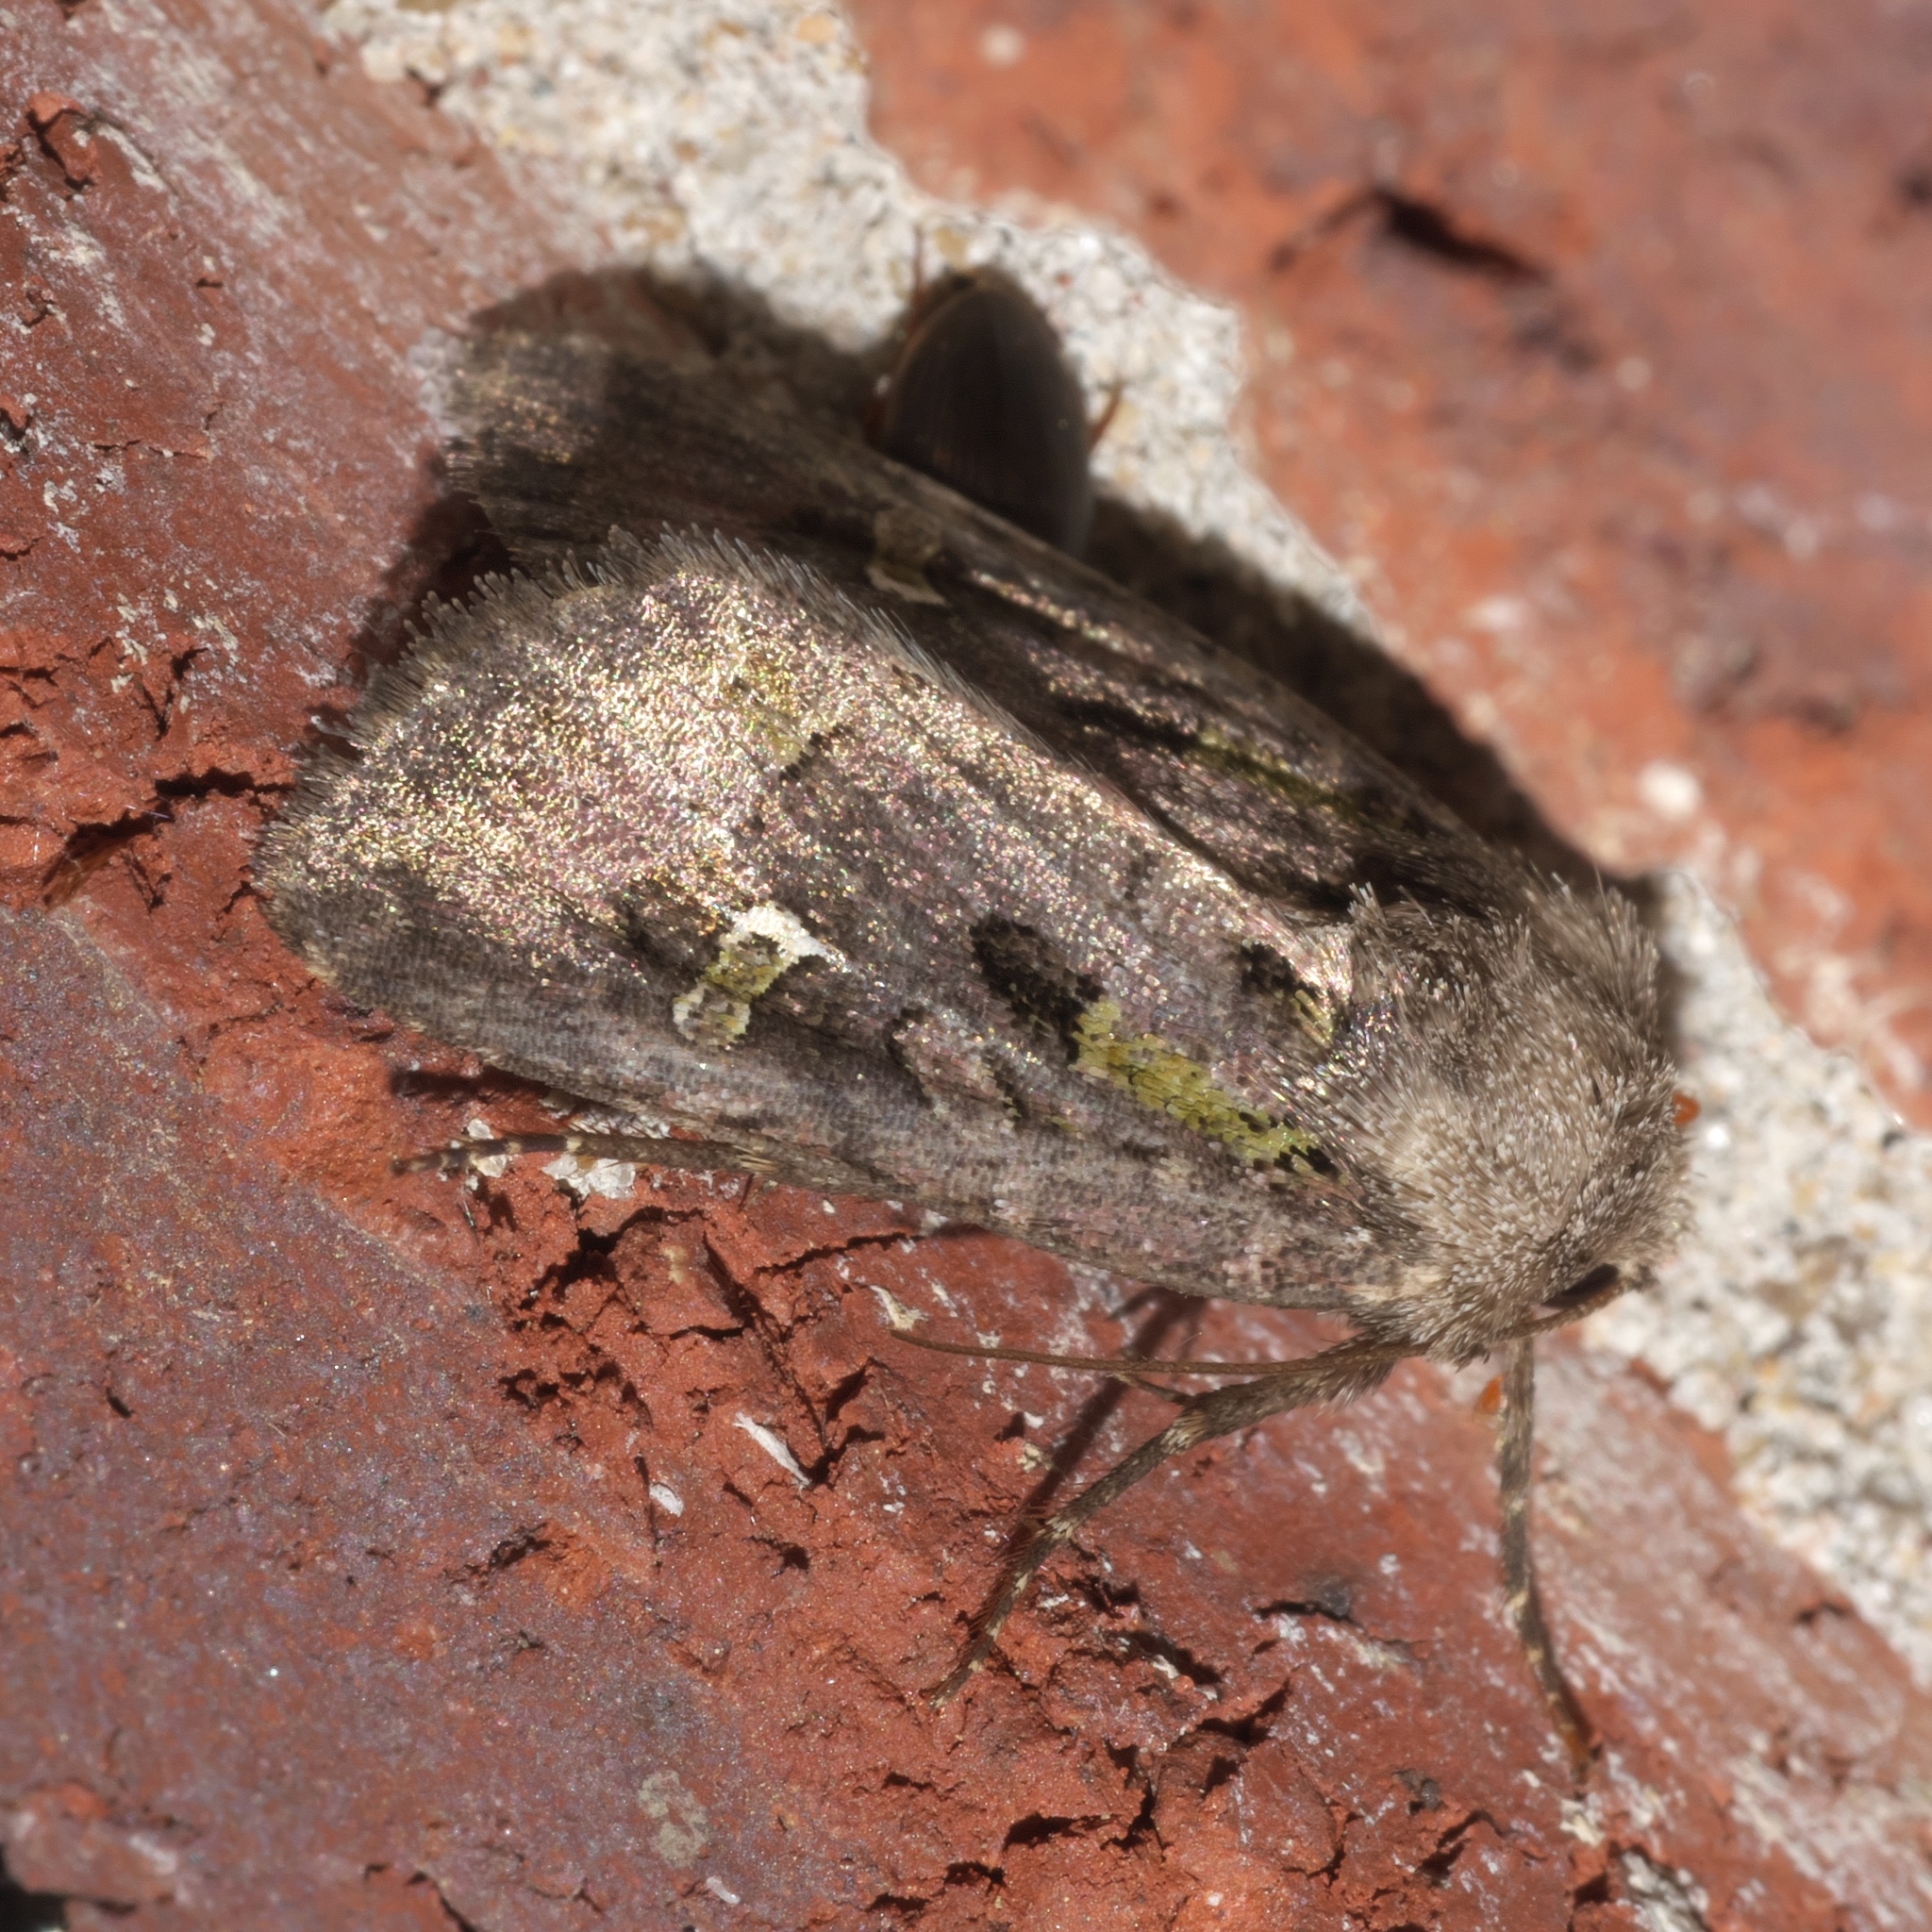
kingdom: Animalia
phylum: Arthropoda
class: Insecta
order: Lepidoptera
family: Noctuidae
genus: Lacinipolia
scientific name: Lacinipolia renigera
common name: Kidney-spotted minor
